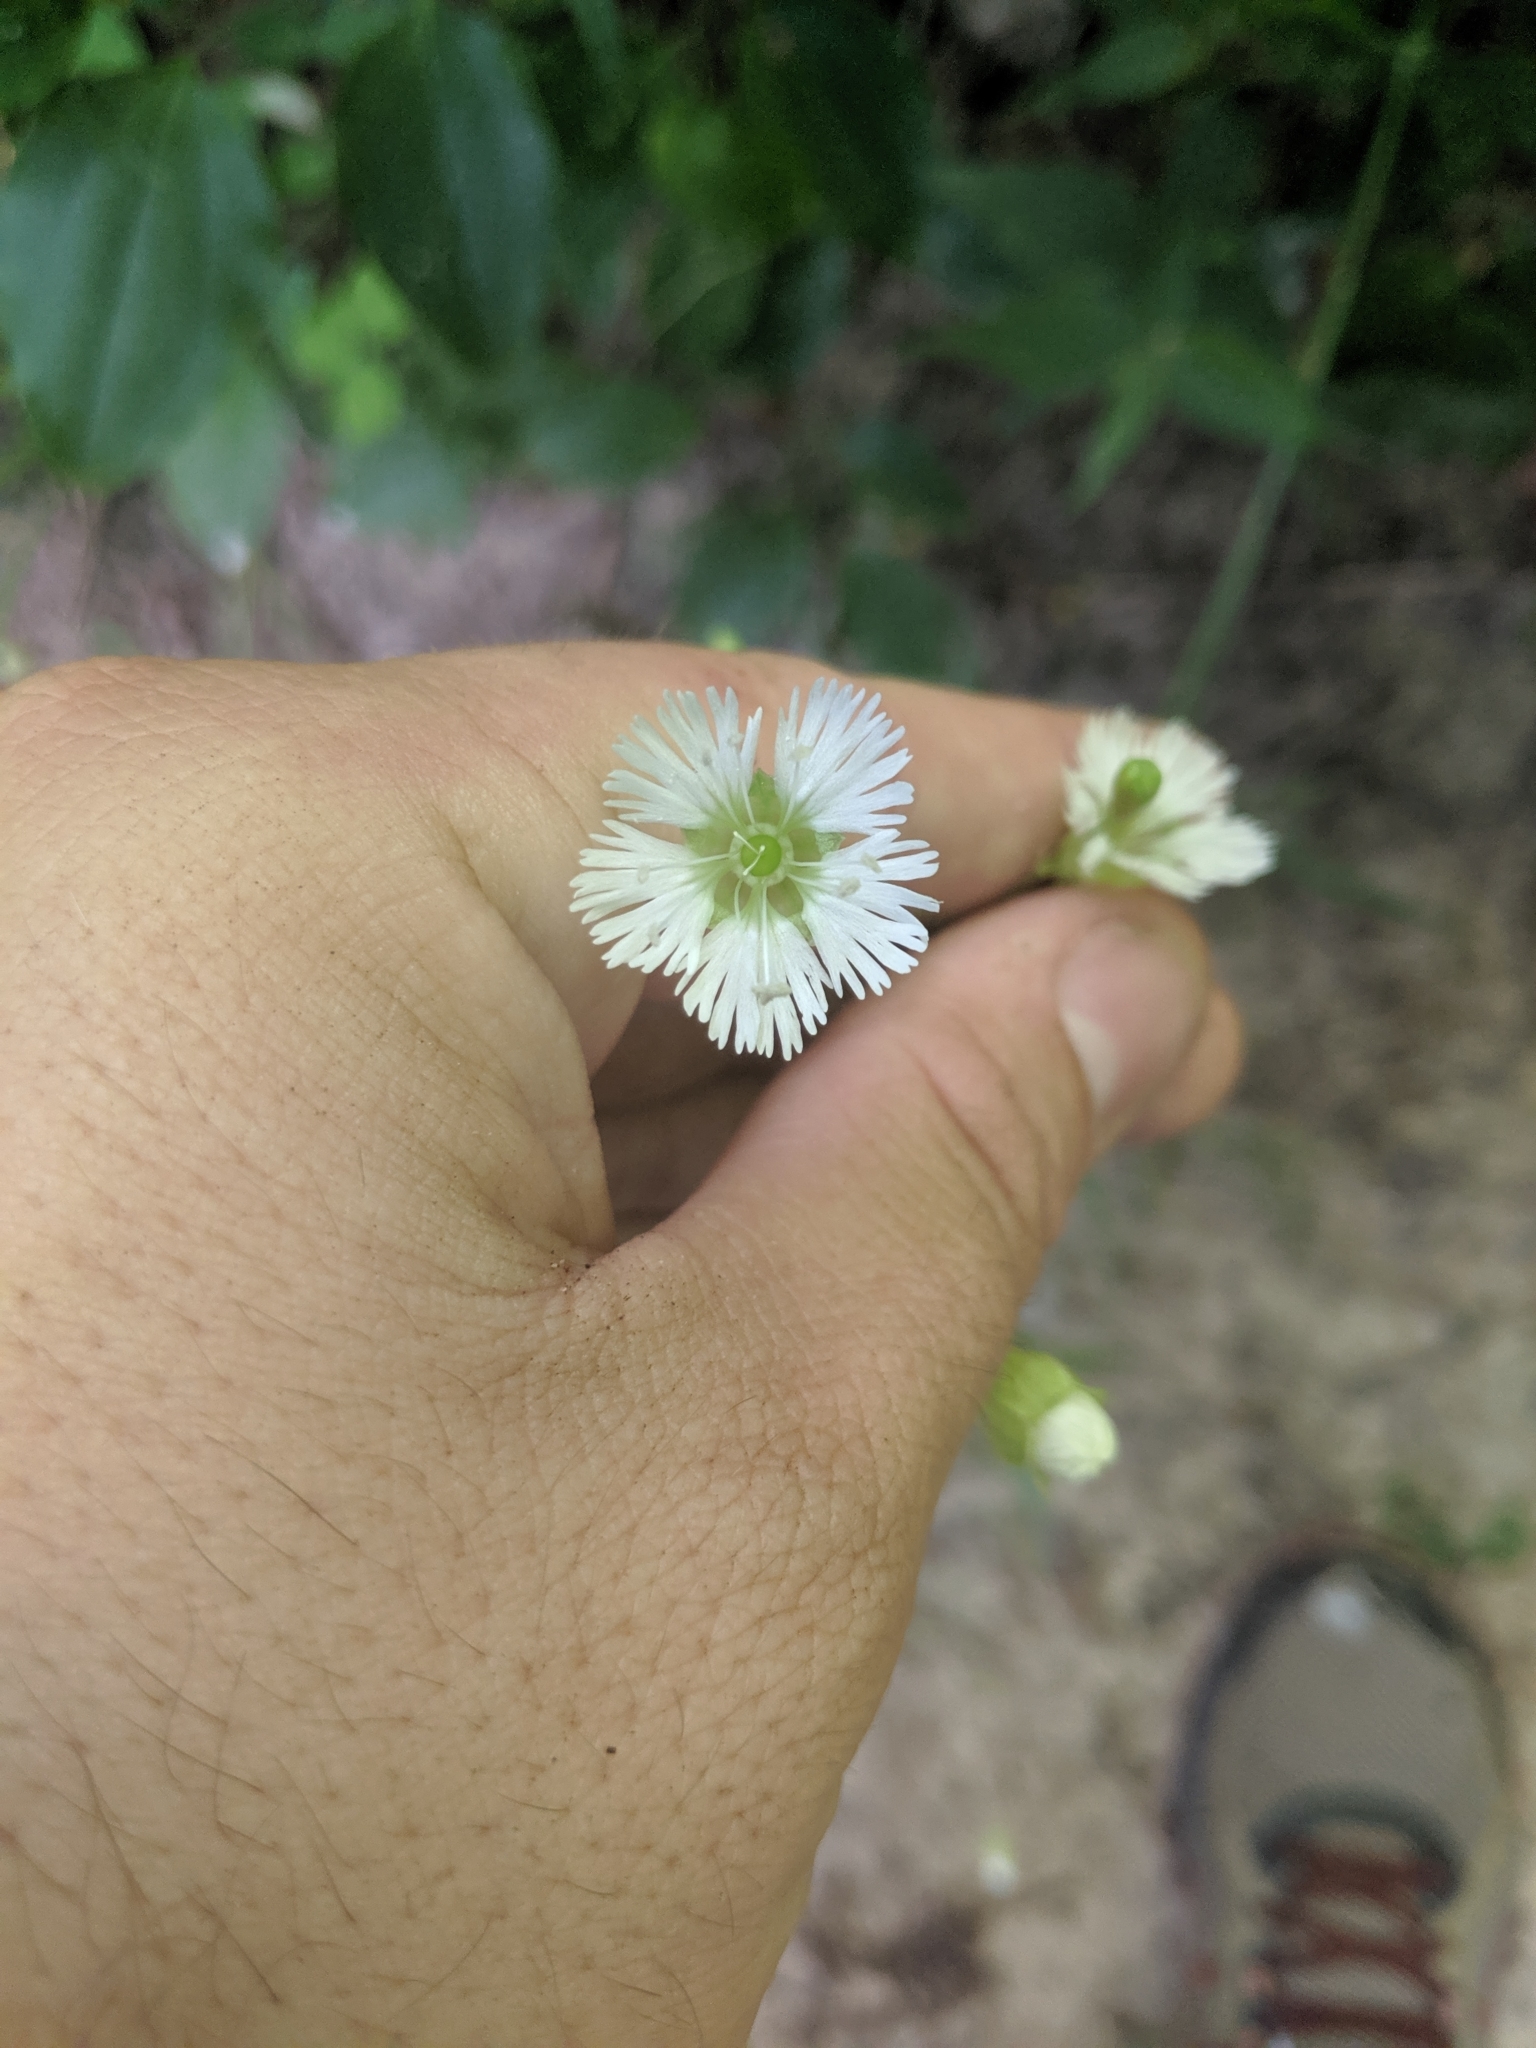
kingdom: Plantae
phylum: Tracheophyta
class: Magnoliopsida
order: Caryophyllales
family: Caryophyllaceae
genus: Silene
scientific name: Silene stellata
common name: Starry campion
